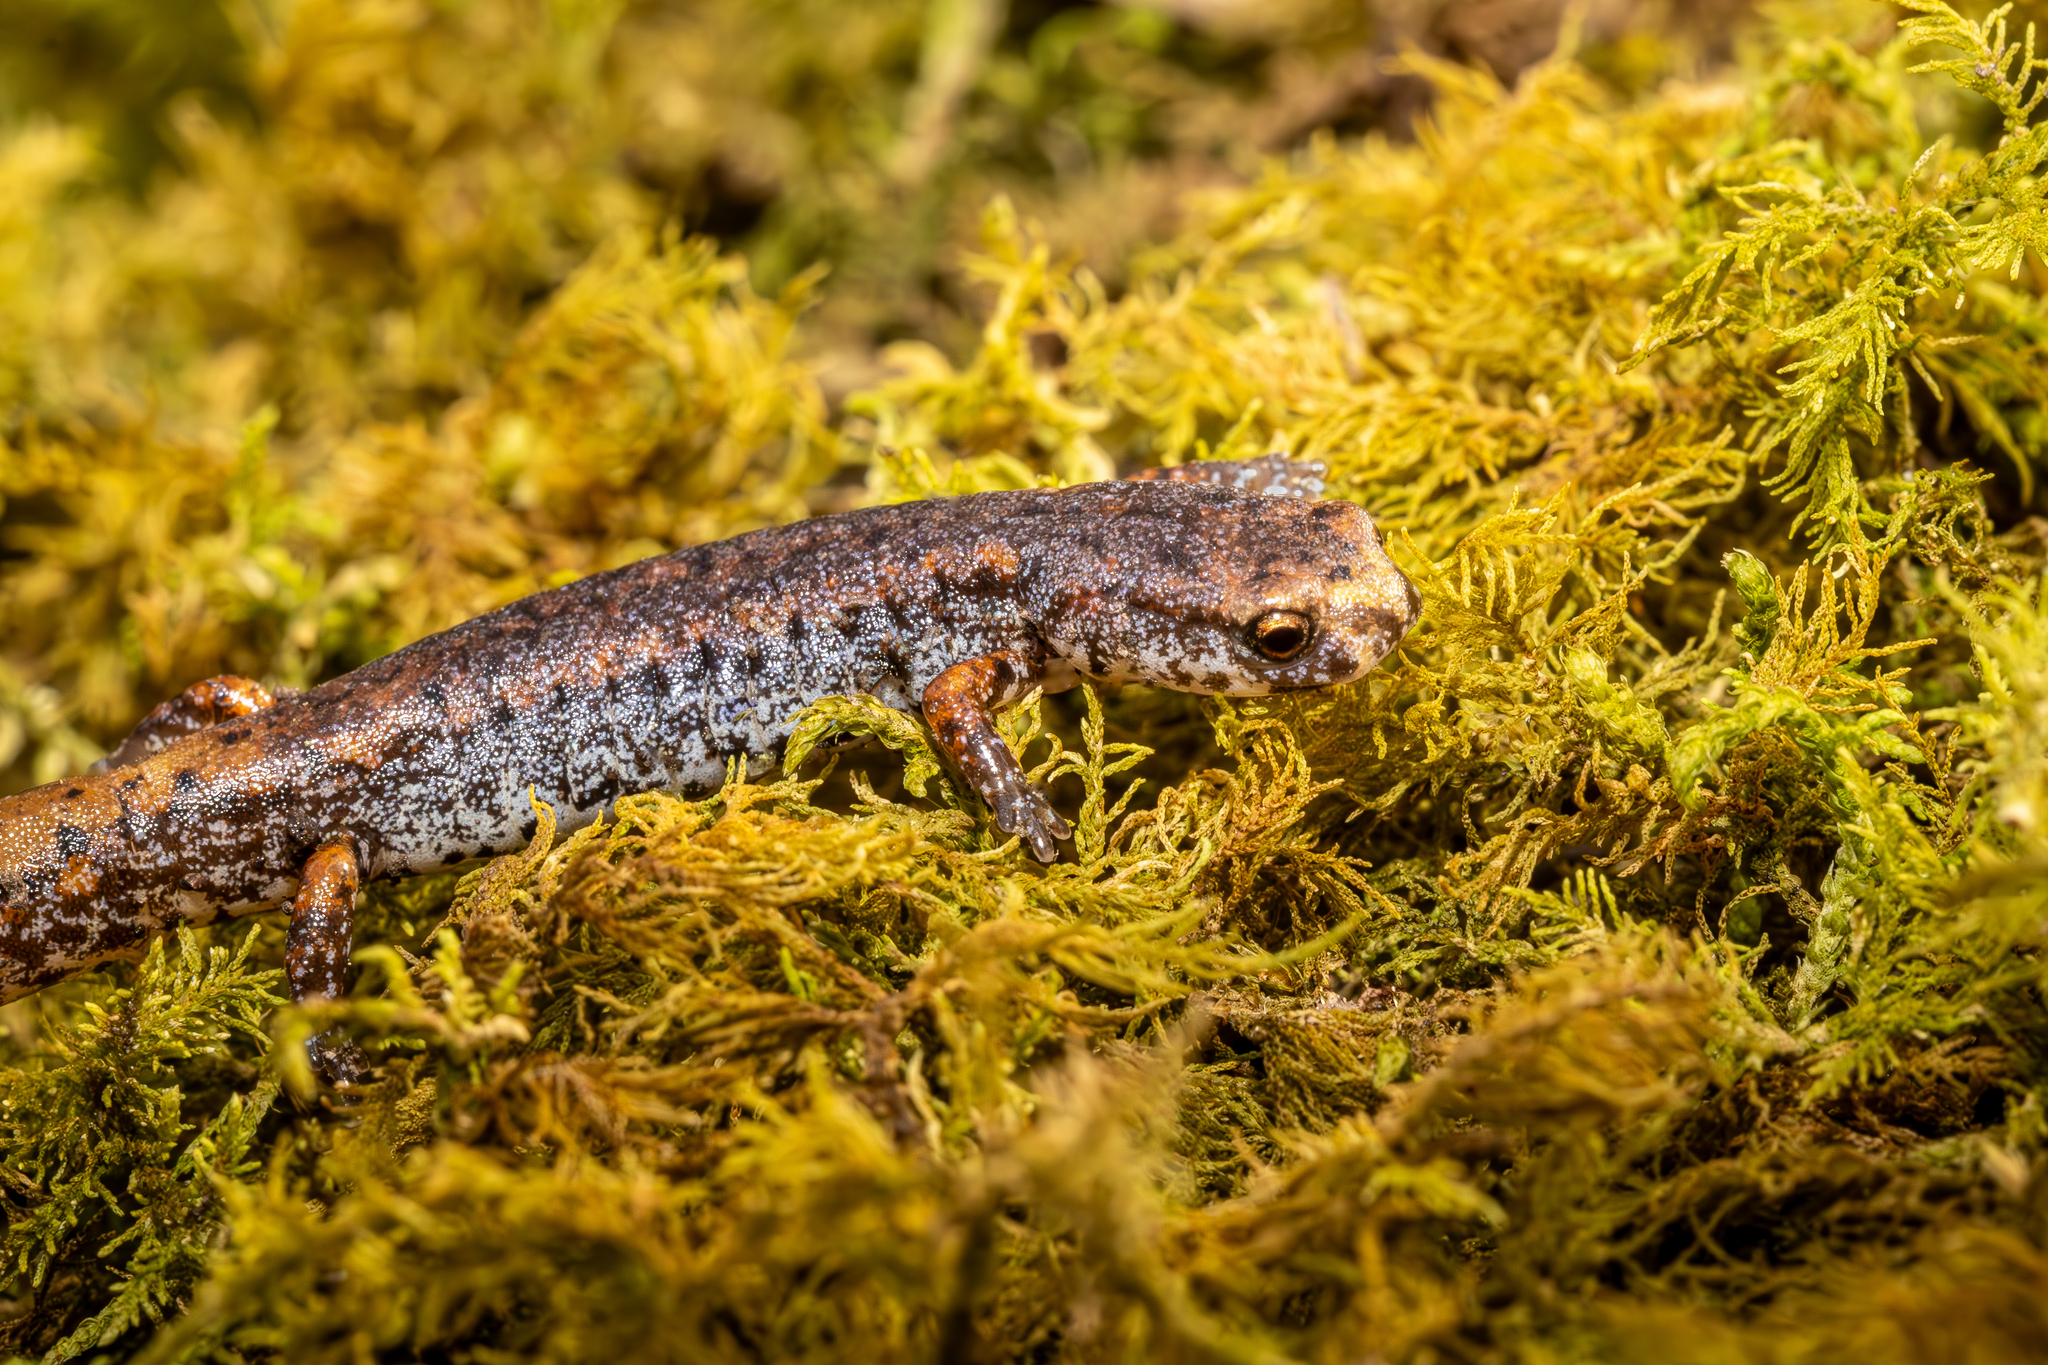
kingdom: Animalia
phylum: Chordata
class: Amphibia
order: Caudata
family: Plethodontidae
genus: Hemidactylium
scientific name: Hemidactylium scutatum
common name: Four-toed salamander
